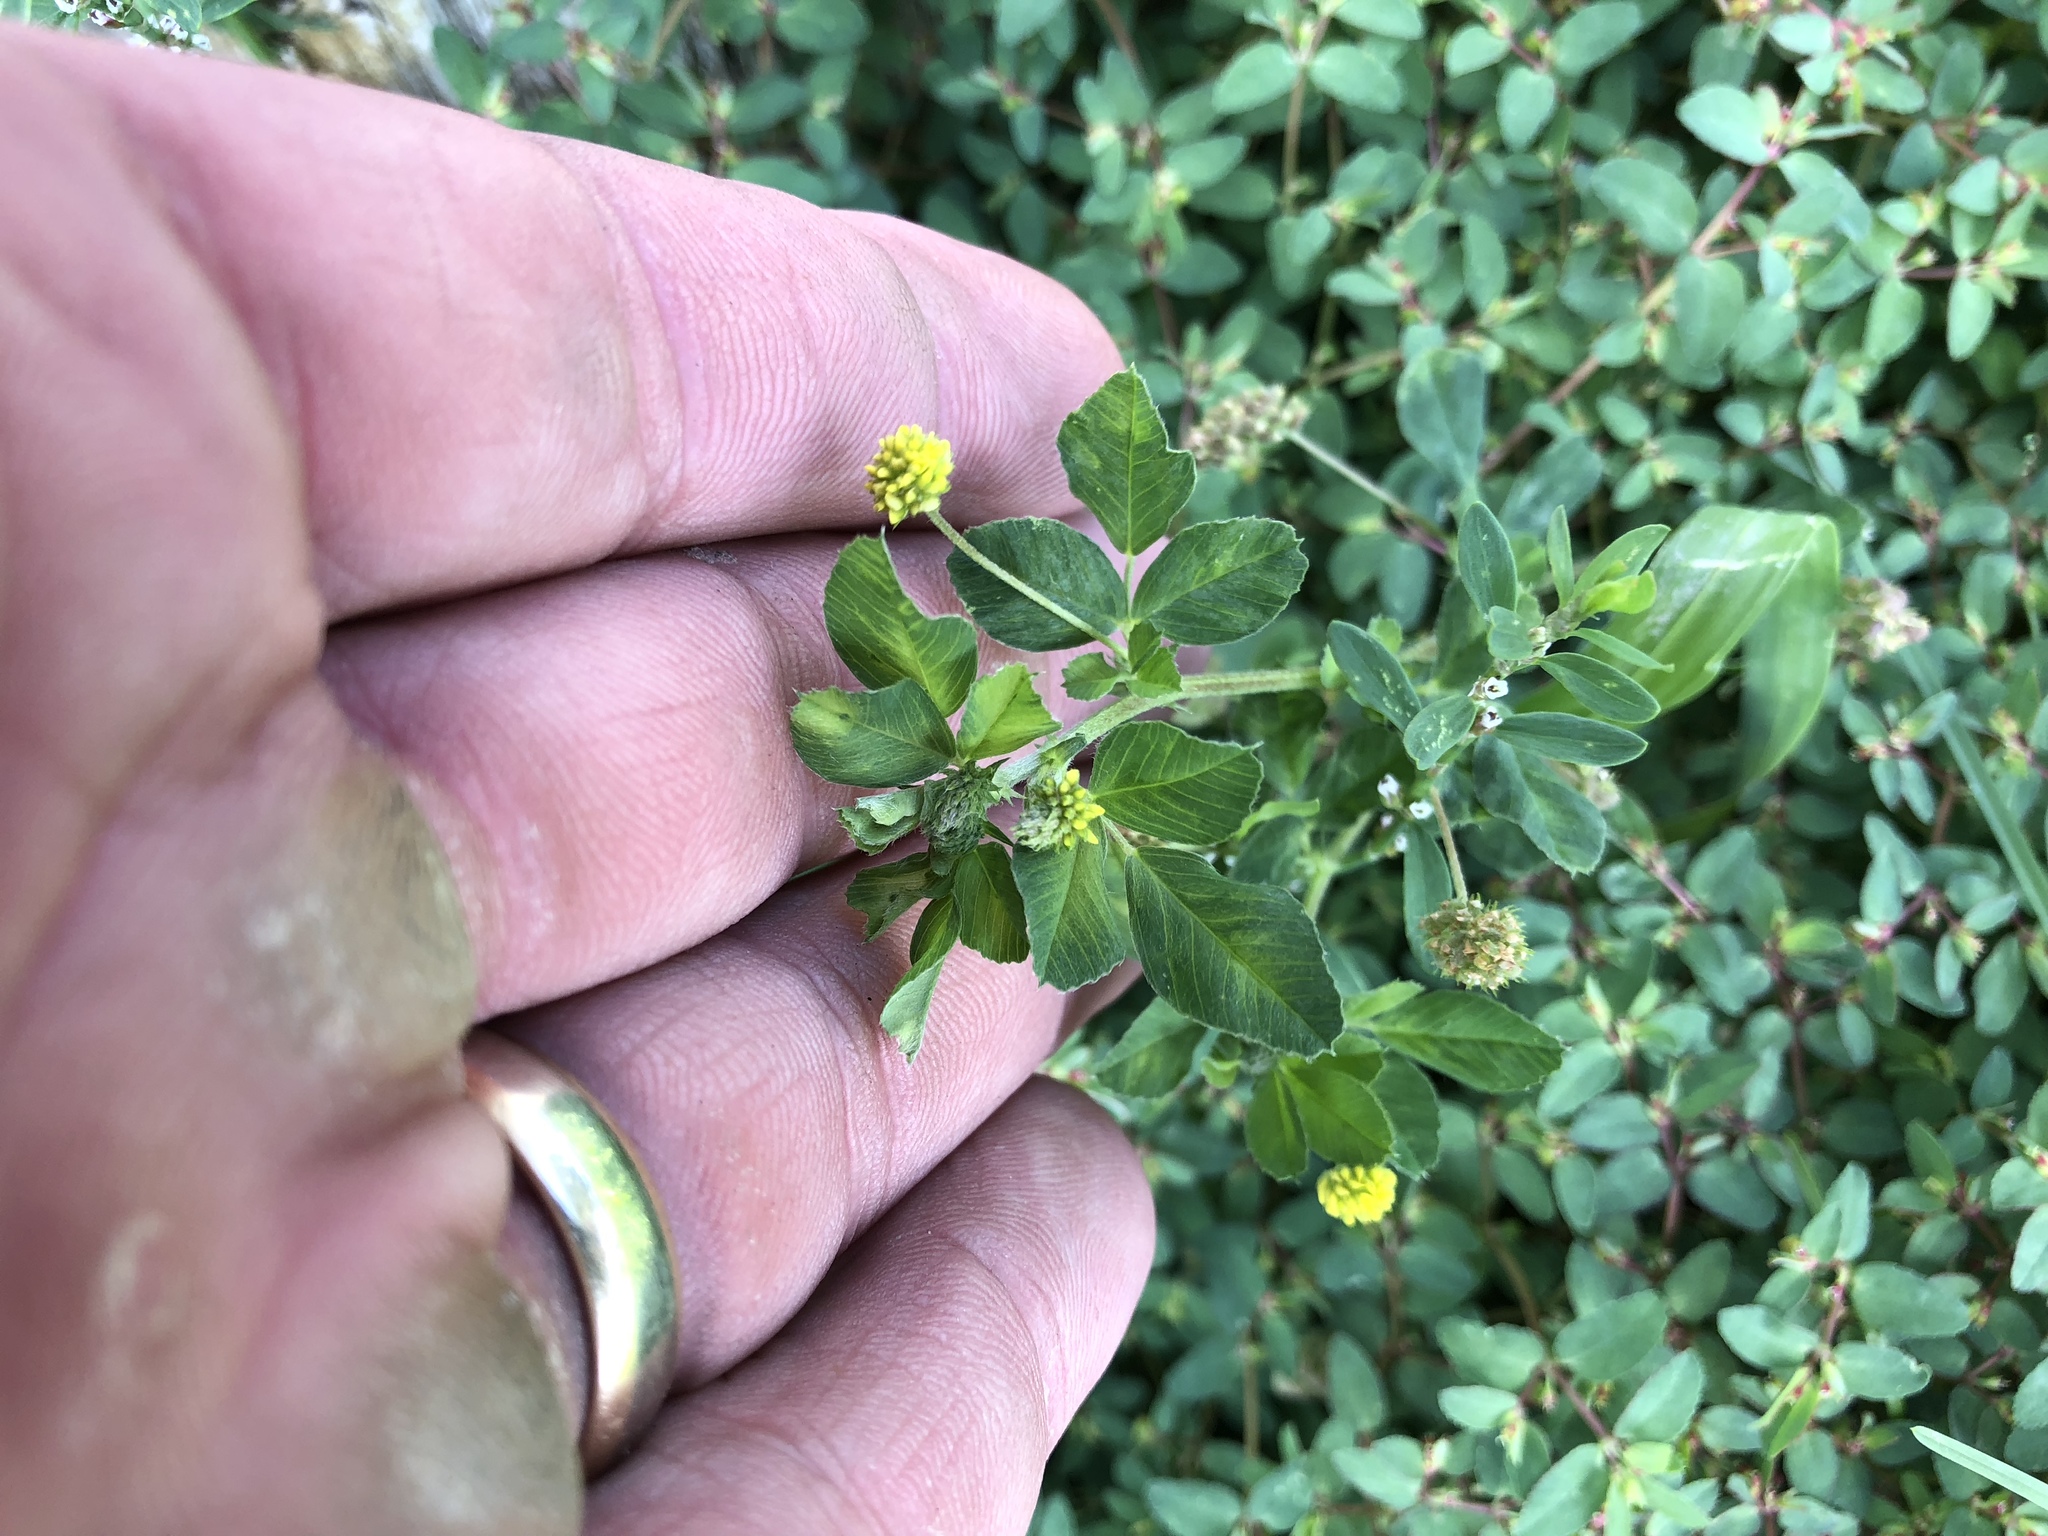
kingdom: Plantae
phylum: Tracheophyta
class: Magnoliopsida
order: Fabales
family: Fabaceae
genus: Medicago
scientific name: Medicago lupulina
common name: Black medick
